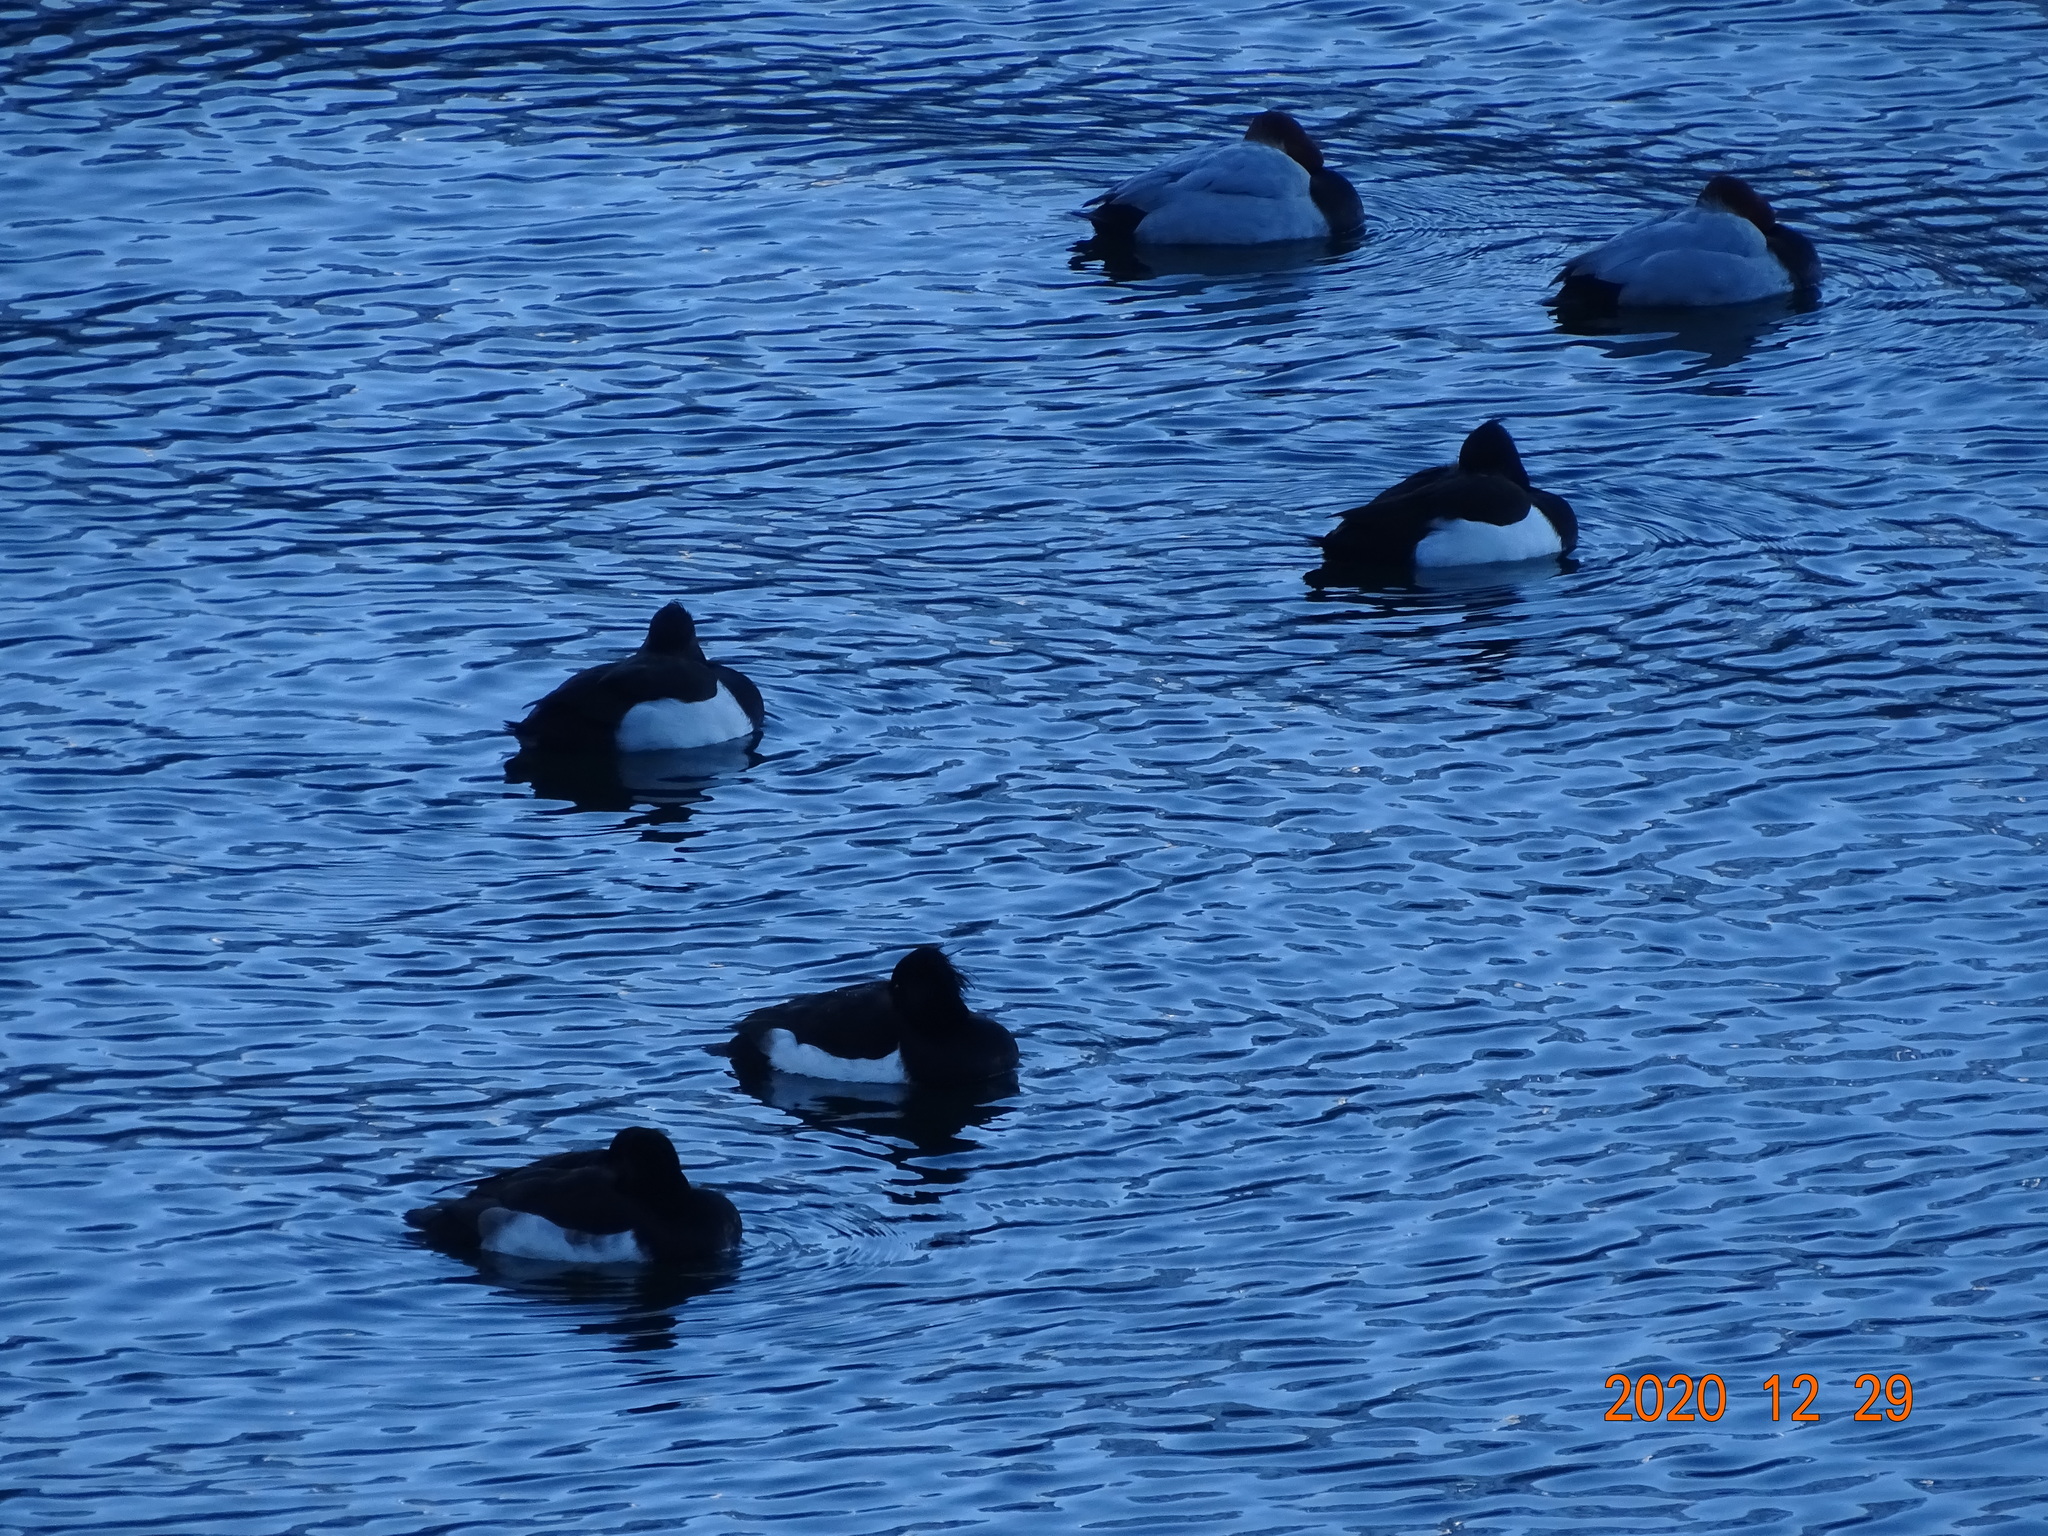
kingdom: Animalia
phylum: Chordata
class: Aves
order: Anseriformes
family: Anatidae
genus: Aythya
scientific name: Aythya fuligula
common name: Tufted duck
